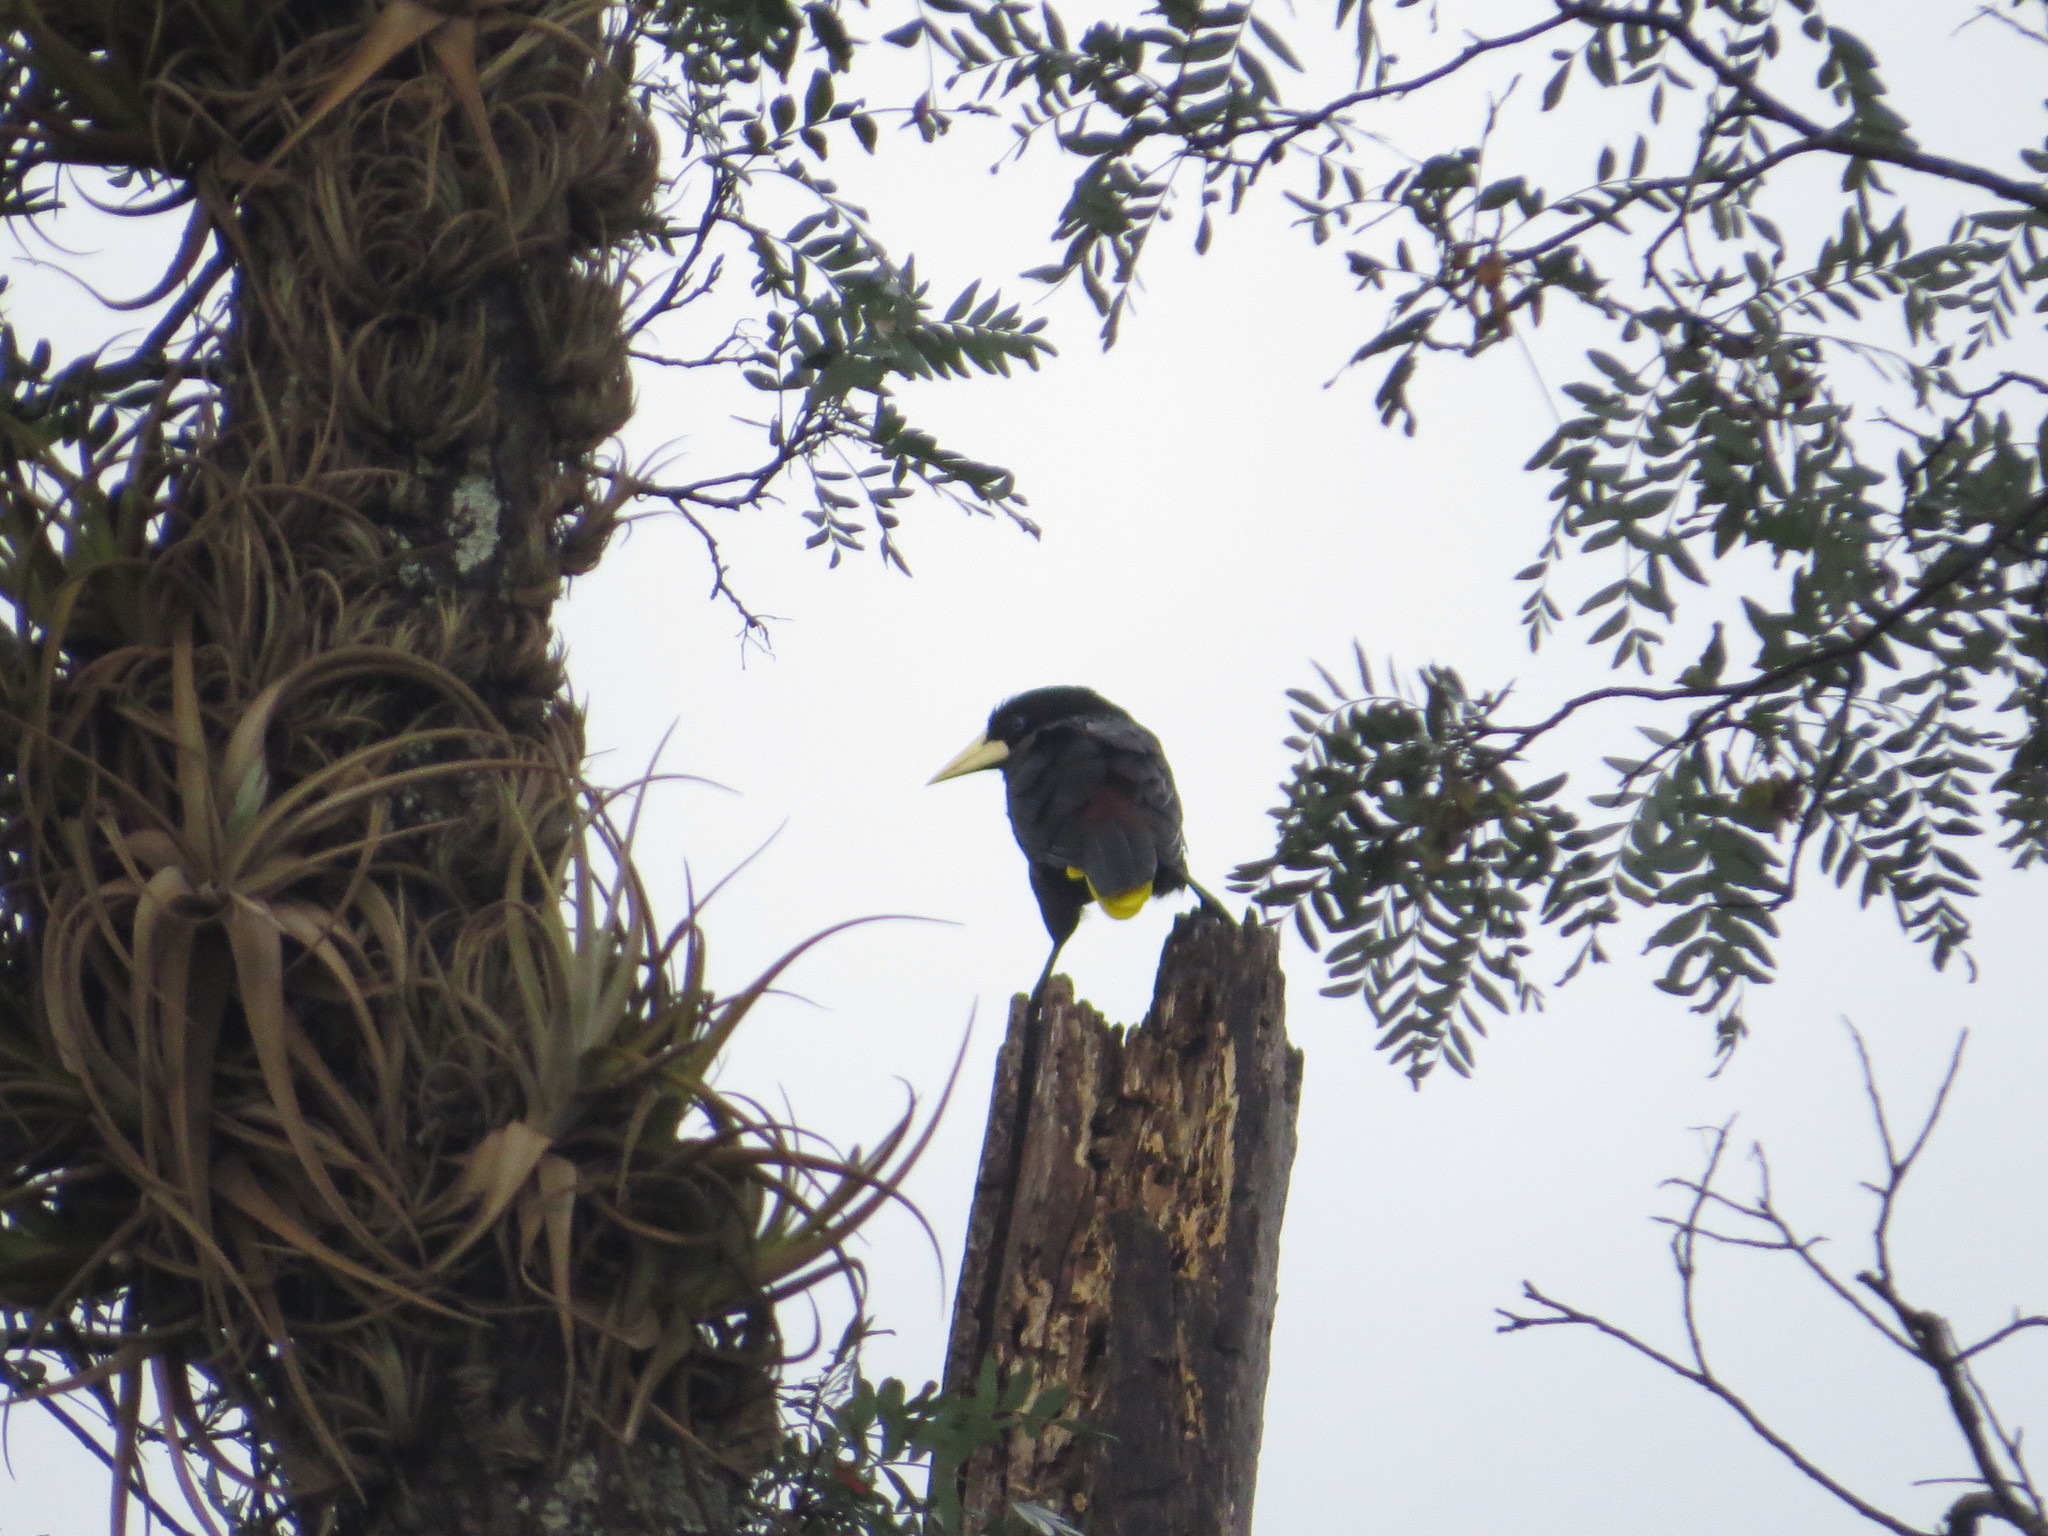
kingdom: Plantae
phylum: Tracheophyta
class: Liliopsida
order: Poales
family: Bromeliaceae
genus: Tillandsia
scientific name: Tillandsia lorentziana
